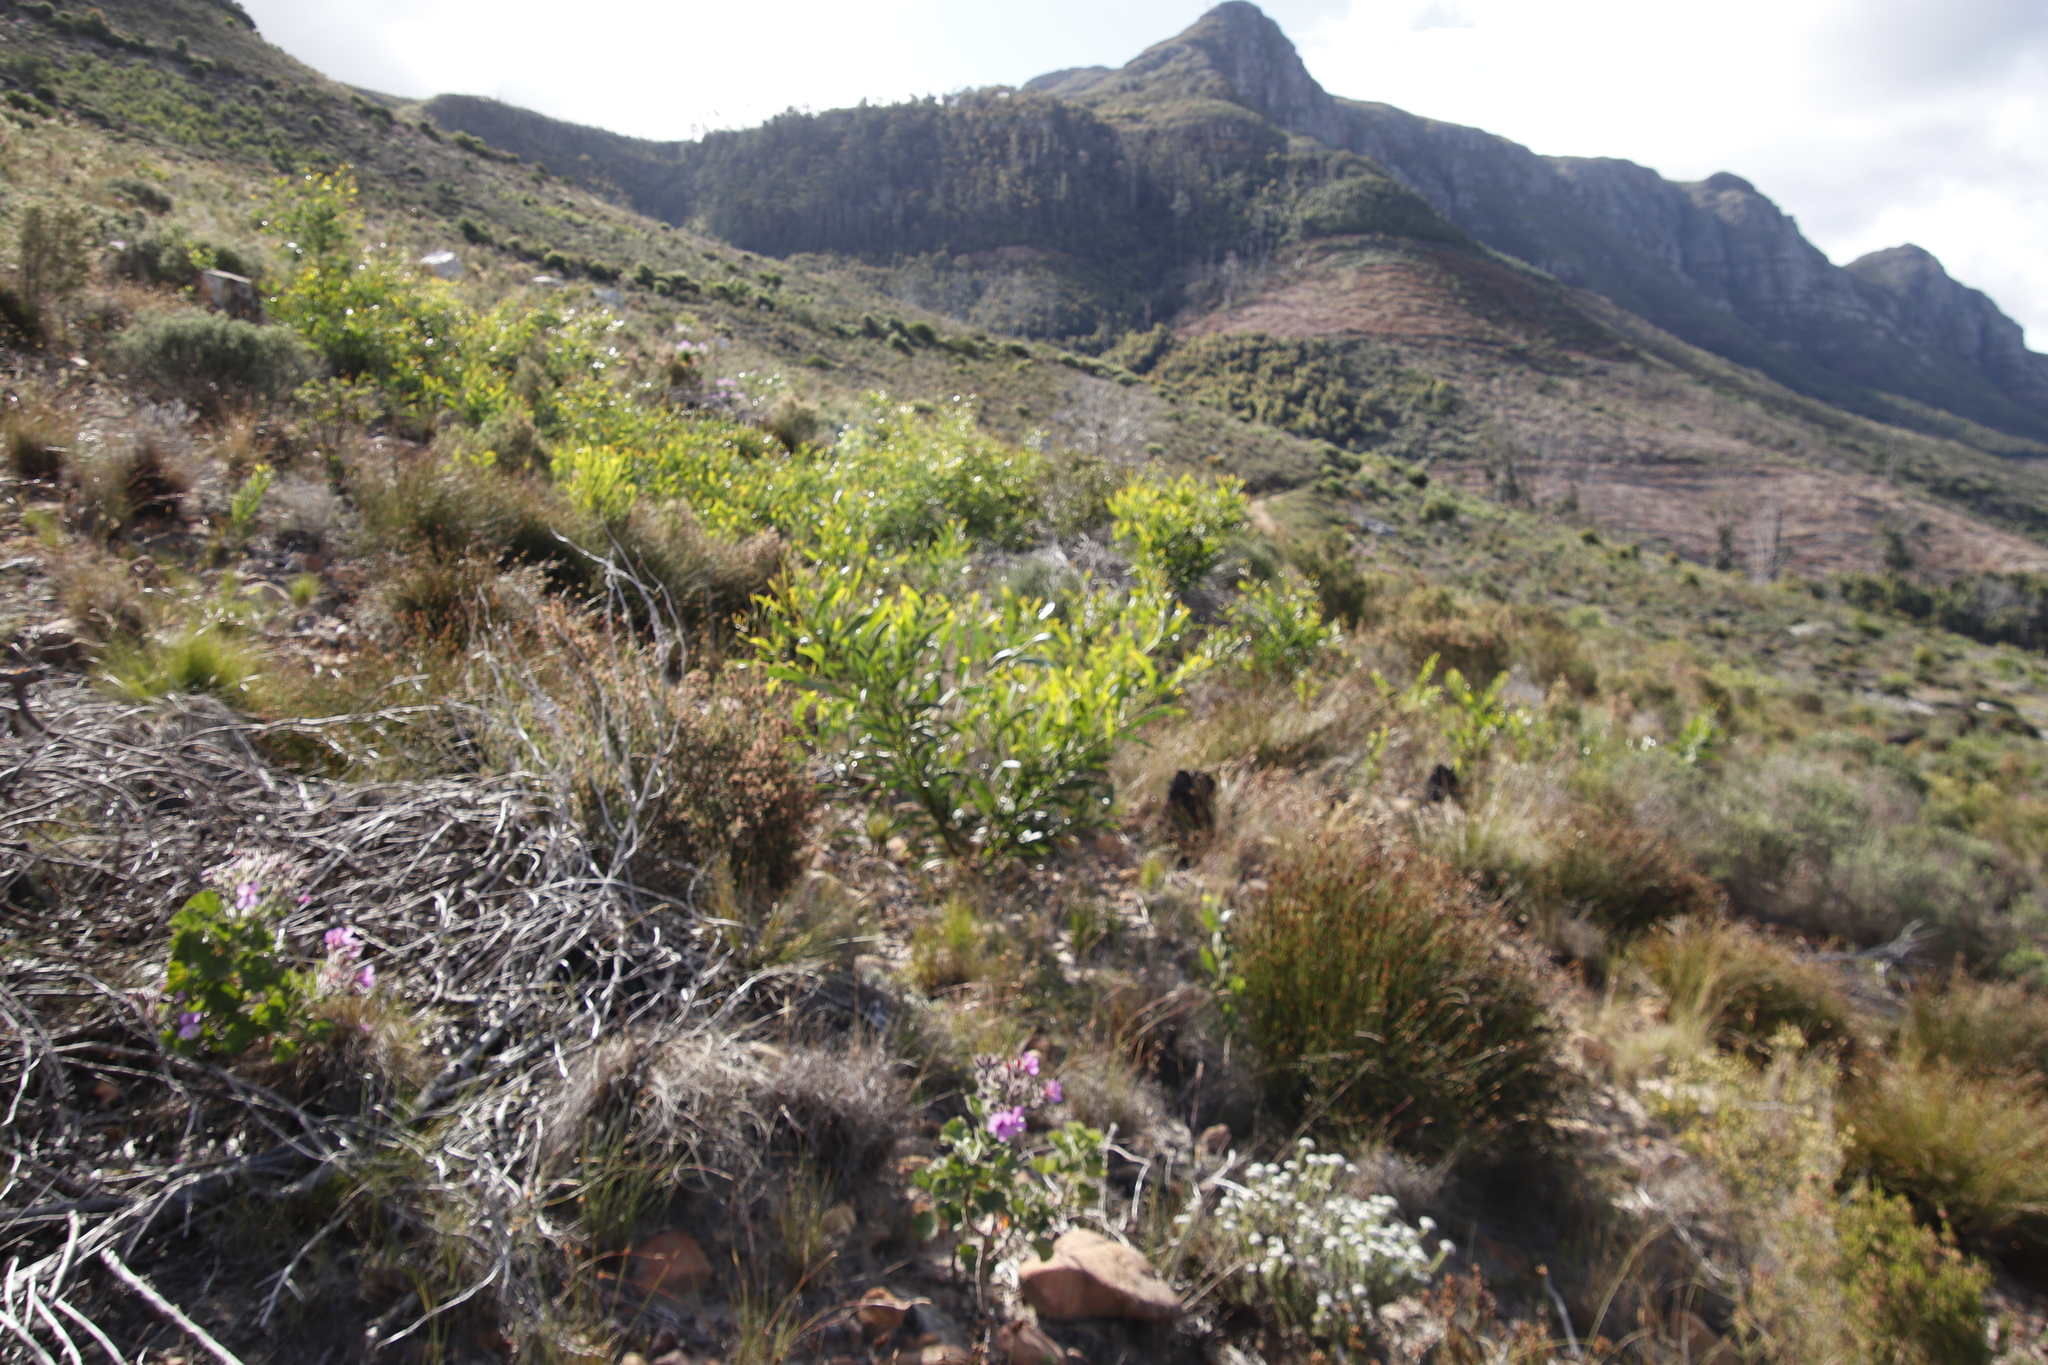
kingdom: Plantae
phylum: Tracheophyta
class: Magnoliopsida
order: Fabales
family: Fabaceae
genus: Acacia
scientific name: Acacia saligna
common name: Orange wattle
